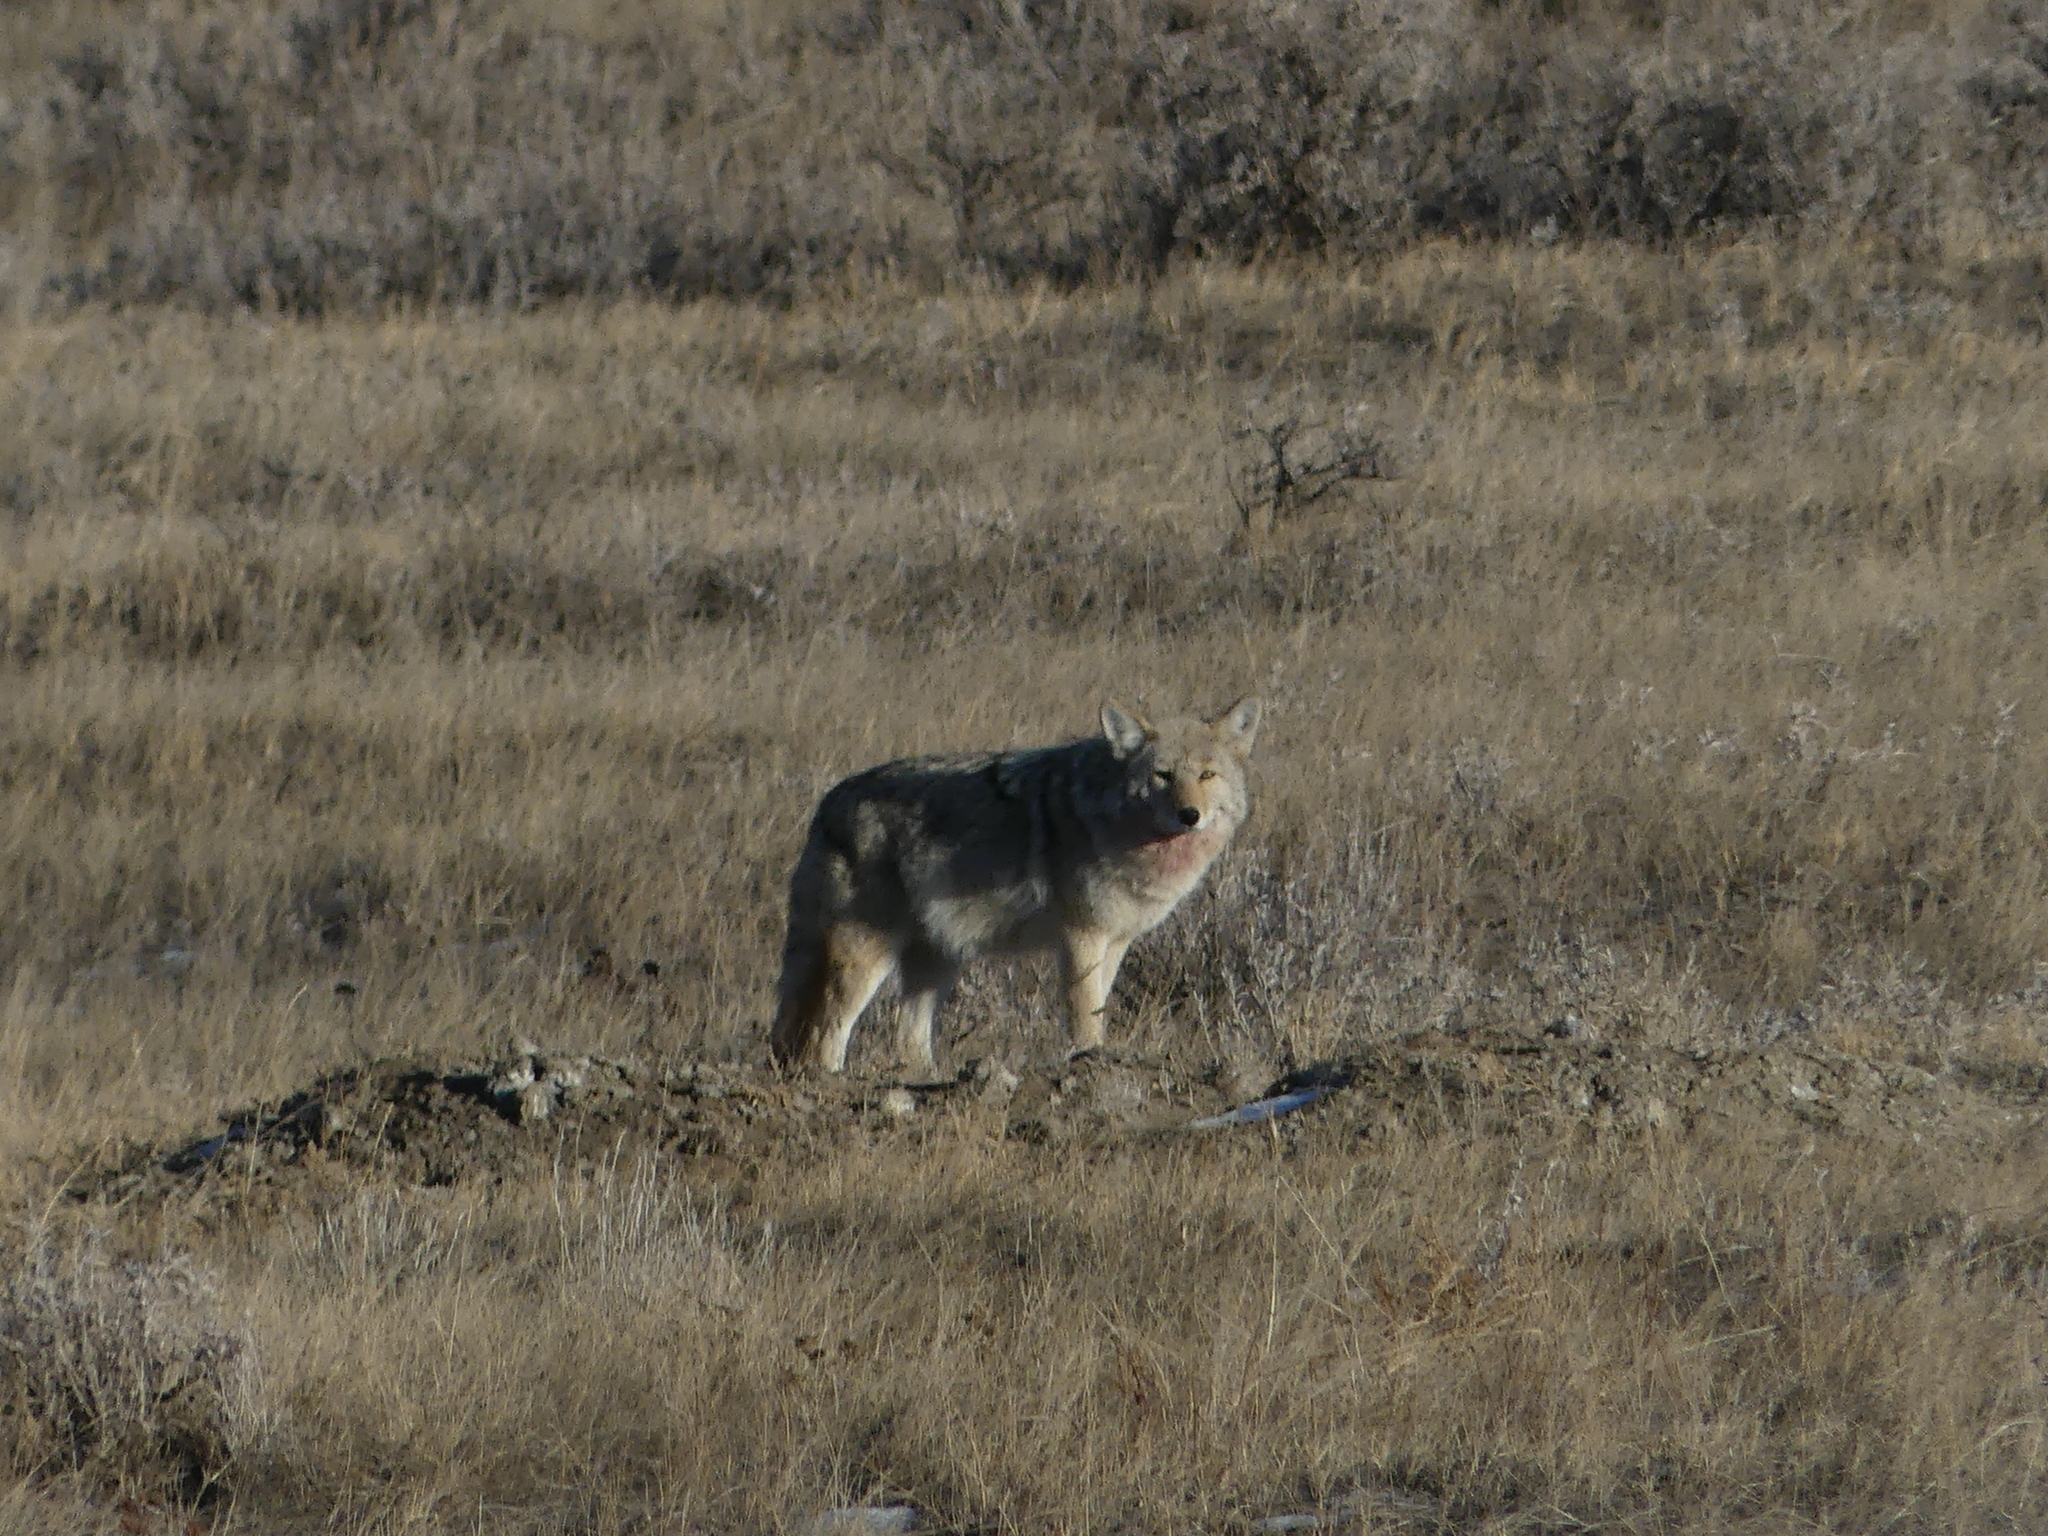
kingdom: Animalia
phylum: Chordata
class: Mammalia
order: Carnivora
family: Canidae
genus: Canis
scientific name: Canis latrans
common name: Coyote
